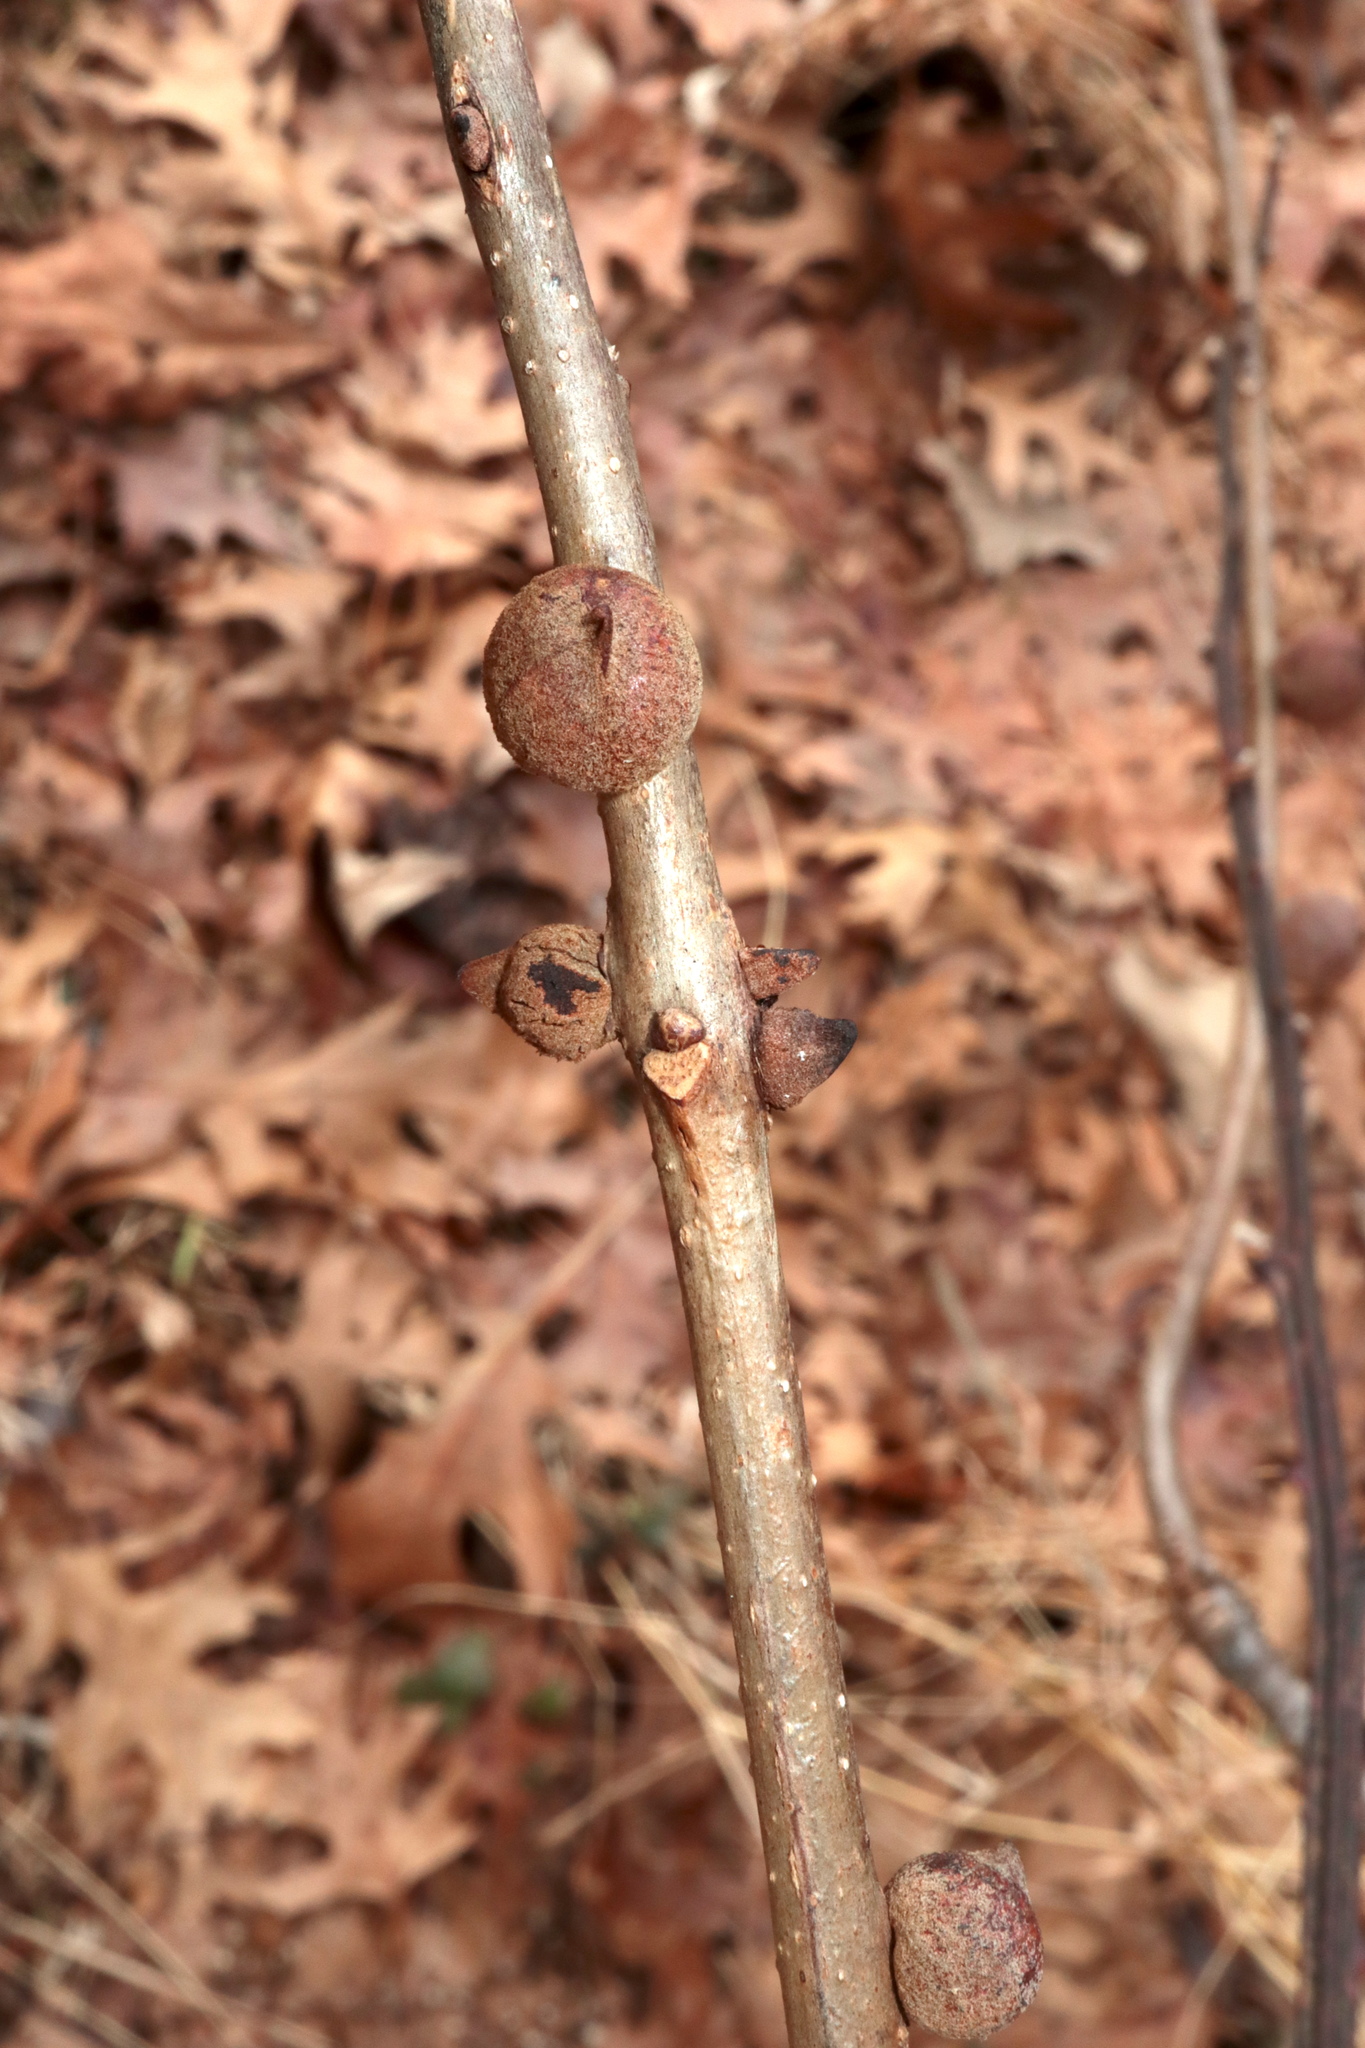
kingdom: Animalia
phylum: Arthropoda
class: Insecta
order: Hymenoptera
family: Cynipidae
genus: Disholcaspis
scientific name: Disholcaspis
